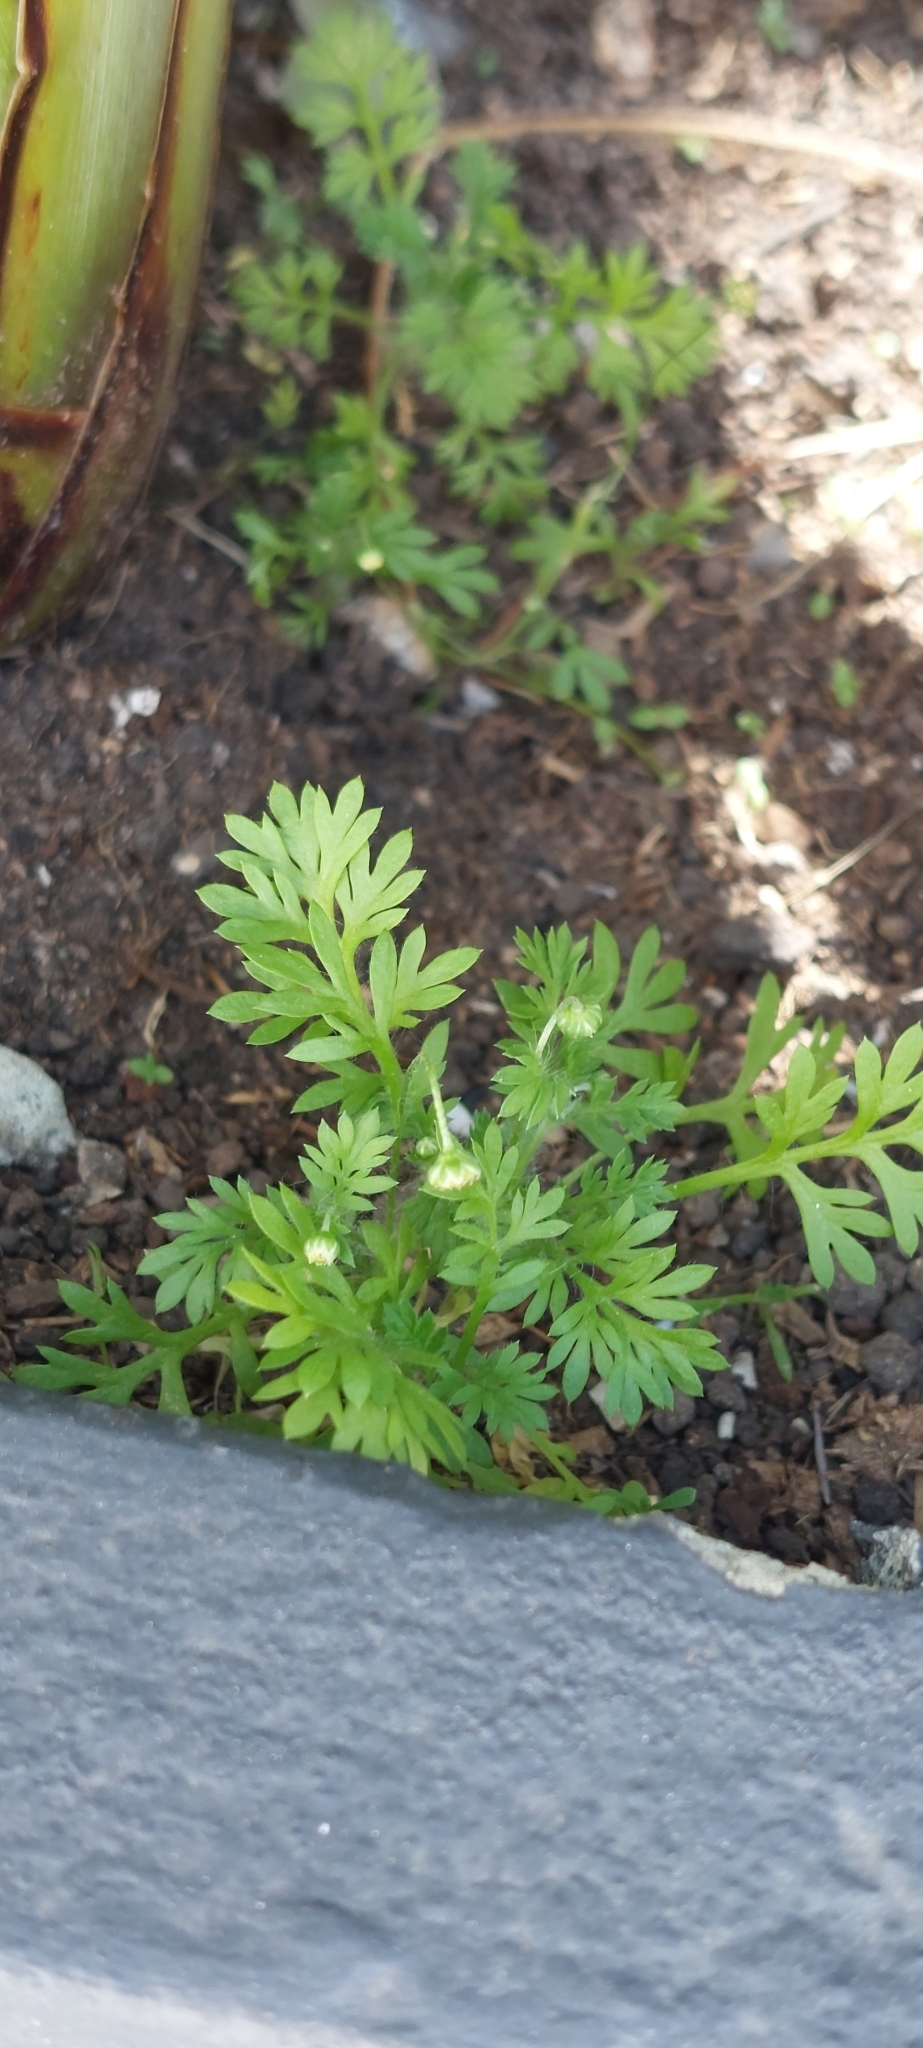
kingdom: Plantae
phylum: Tracheophyta
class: Magnoliopsida
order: Asterales
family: Asteraceae
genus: Cotula
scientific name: Cotula australis
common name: Australian waterbuttons
